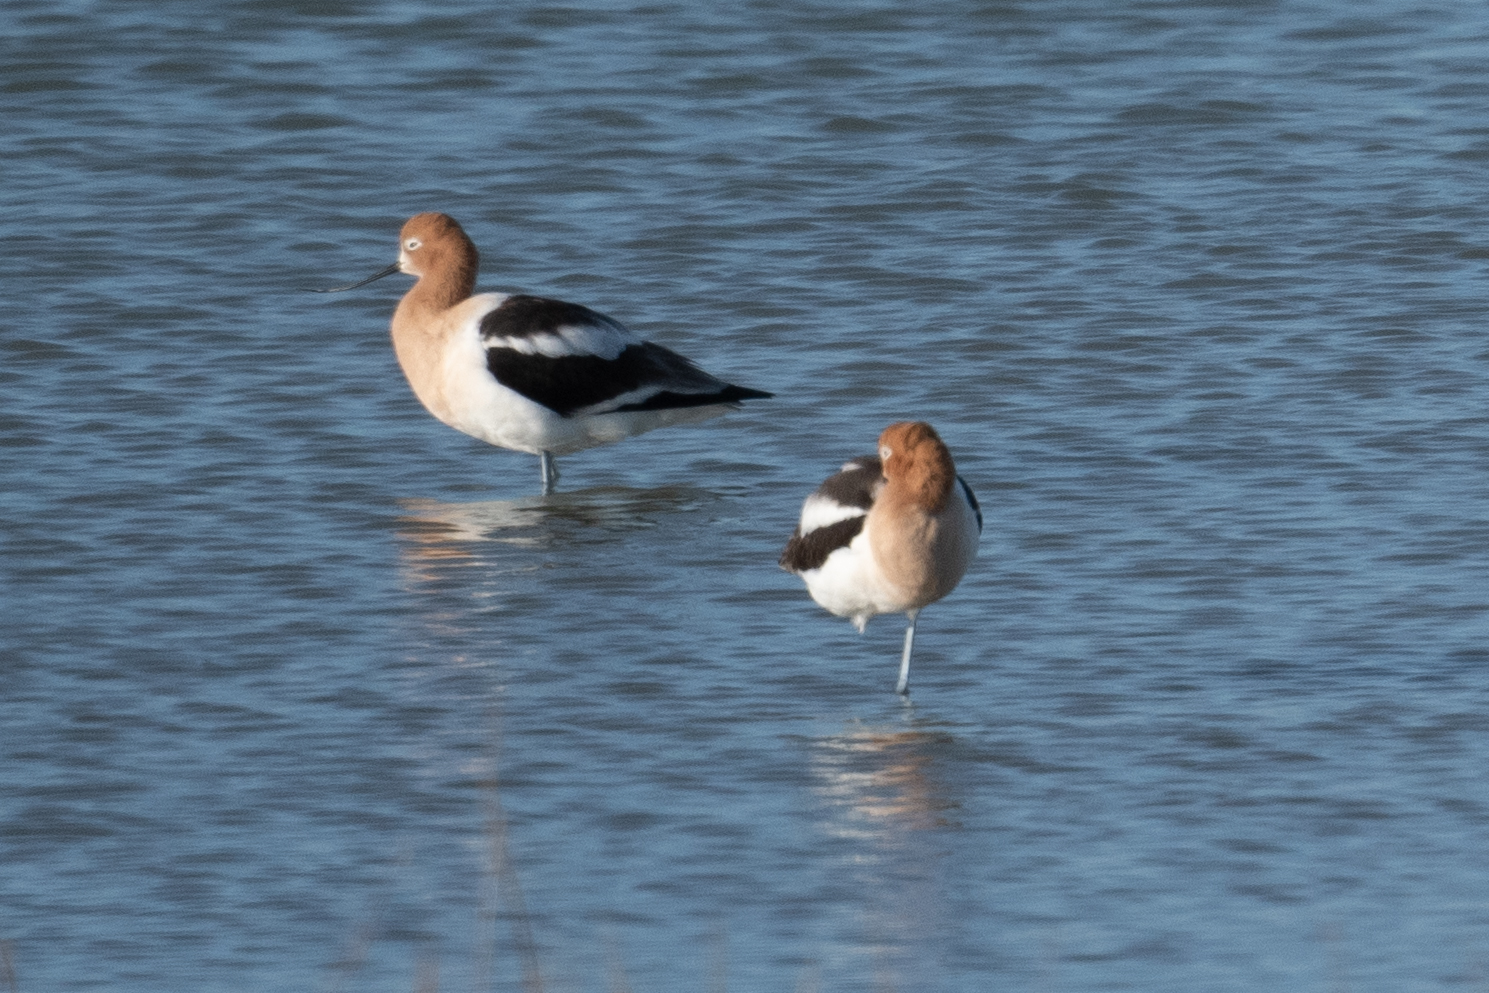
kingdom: Animalia
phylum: Chordata
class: Aves
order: Charadriiformes
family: Recurvirostridae
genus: Recurvirostra
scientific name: Recurvirostra americana
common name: American avocet
